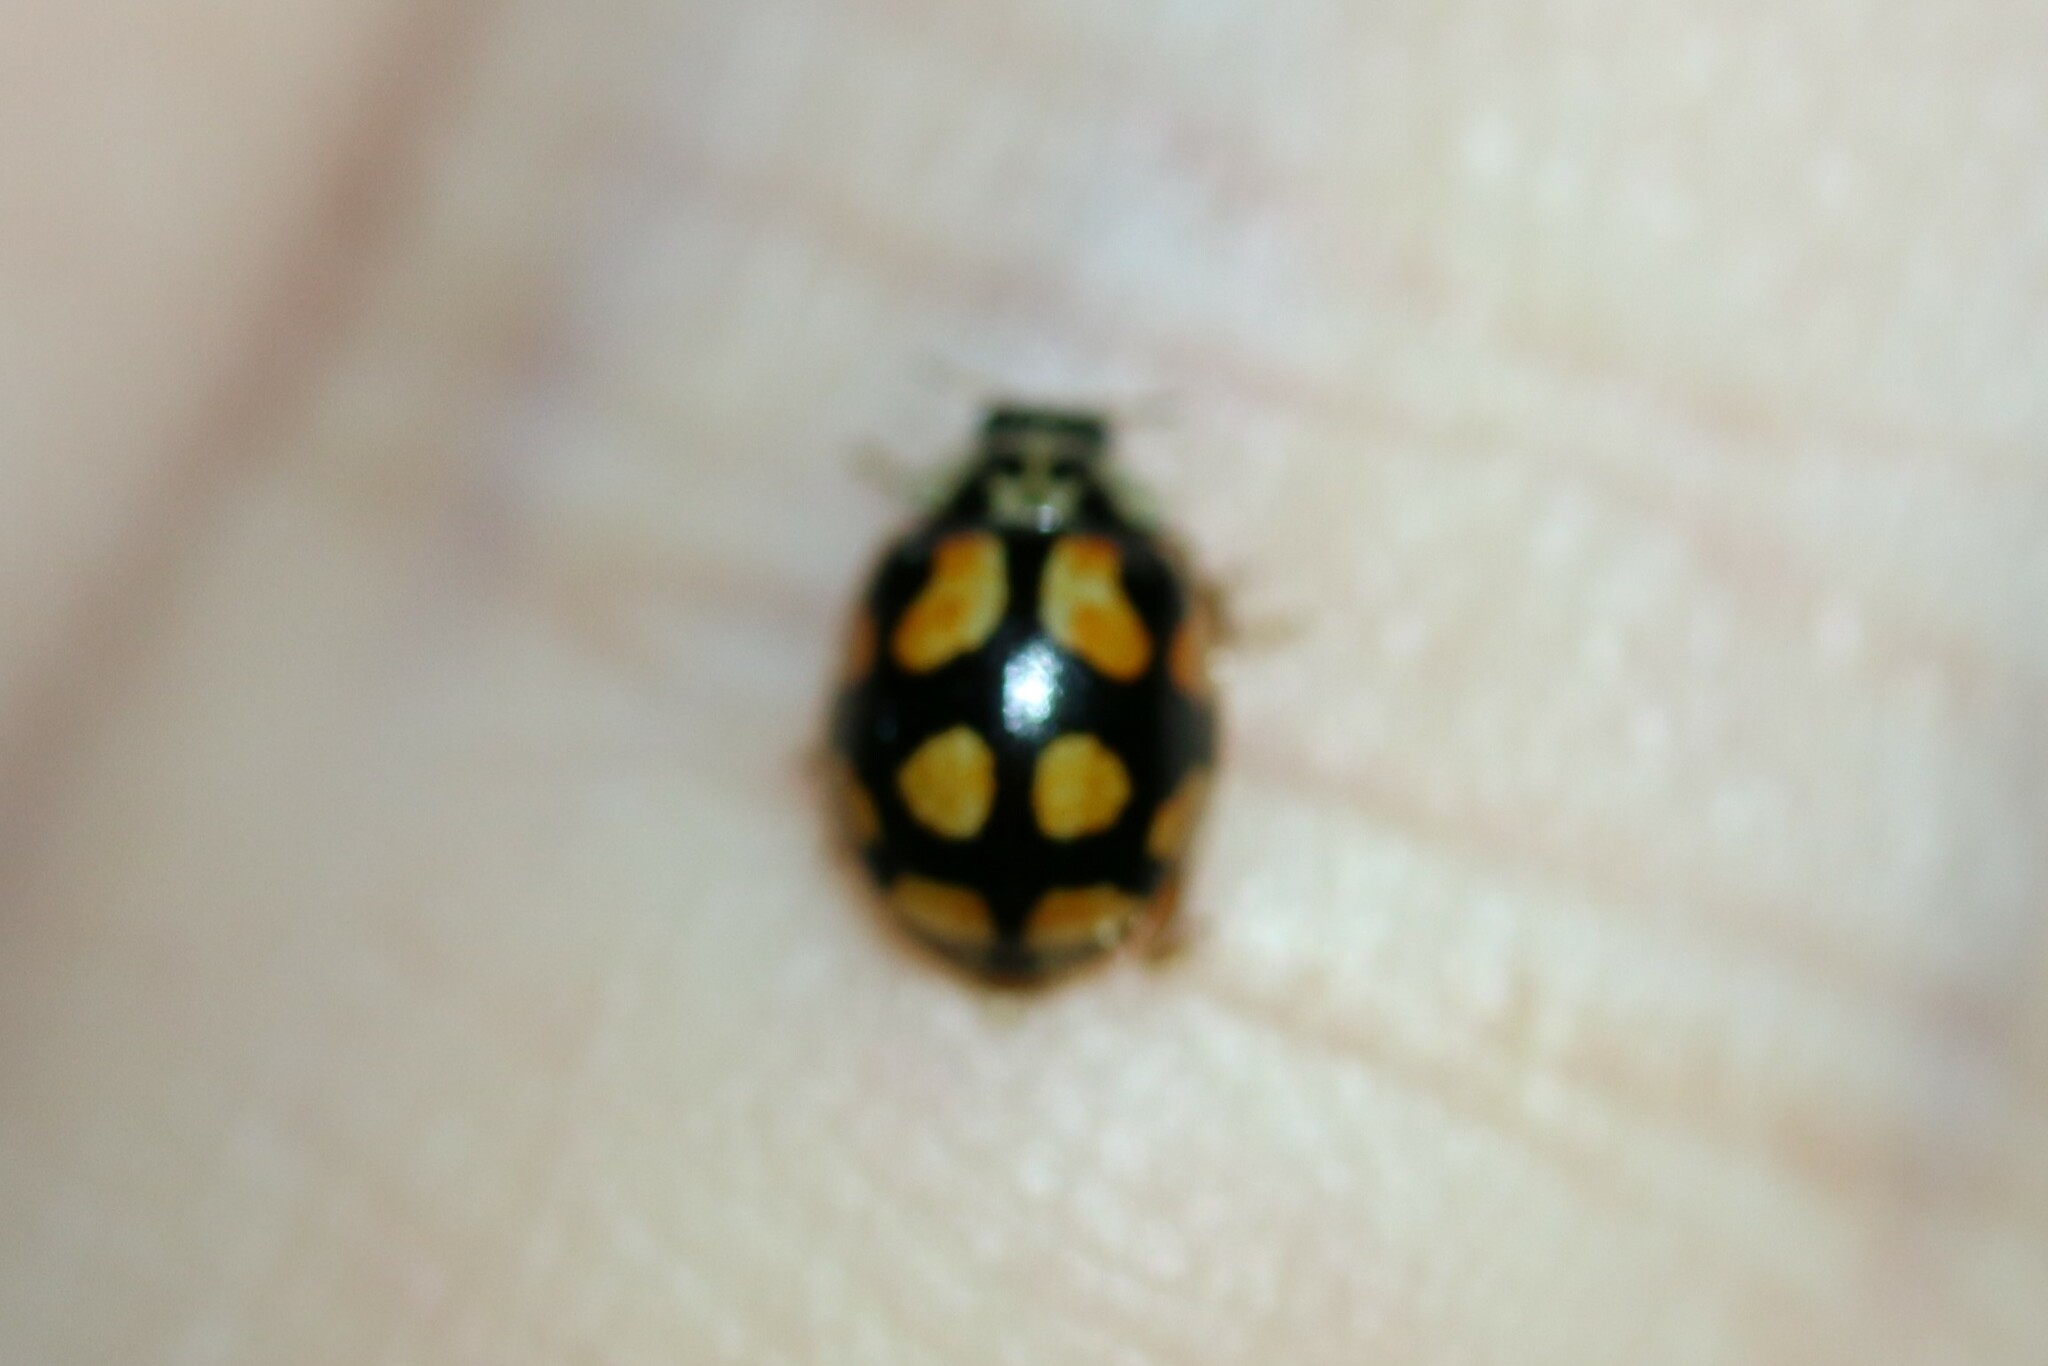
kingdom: Animalia
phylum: Arthropoda
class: Insecta
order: Coleoptera
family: Coccinellidae
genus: Adalia
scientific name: Adalia decempunctata
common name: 10-spot ladybird
